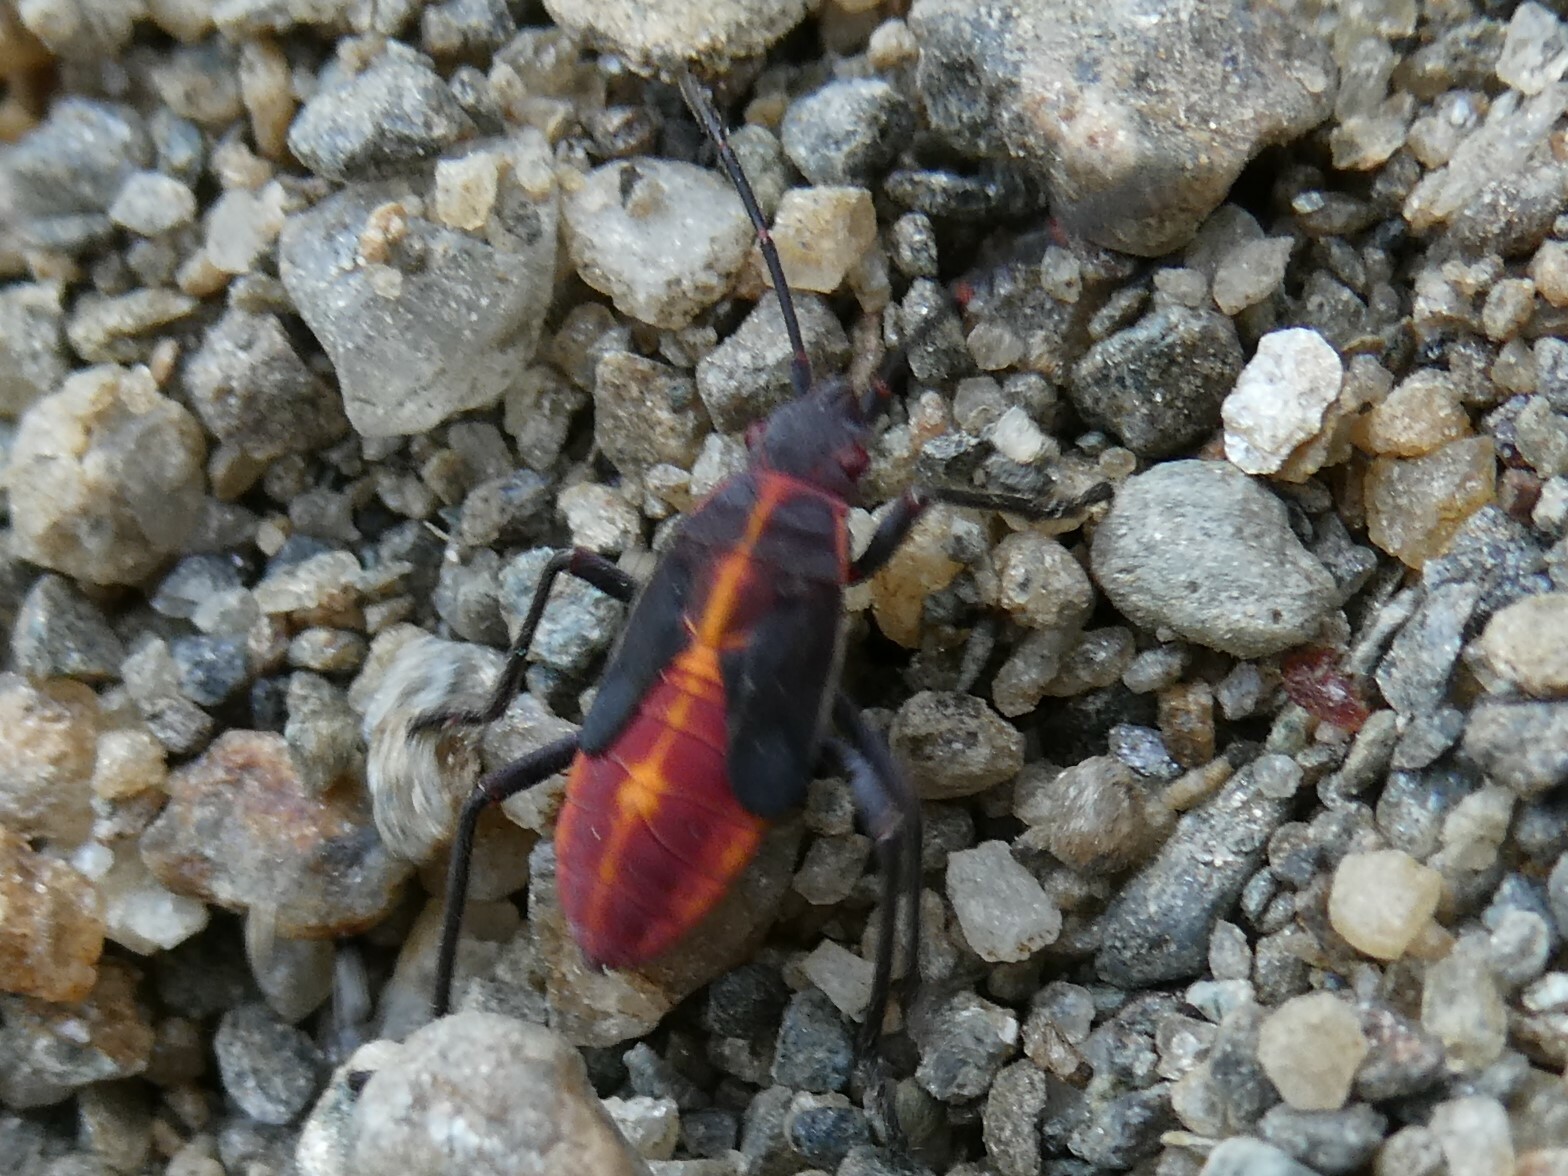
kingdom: Animalia
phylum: Arthropoda
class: Insecta
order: Hemiptera
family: Rhopalidae
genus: Boisea
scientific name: Boisea trivittata
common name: Boxelder bug
